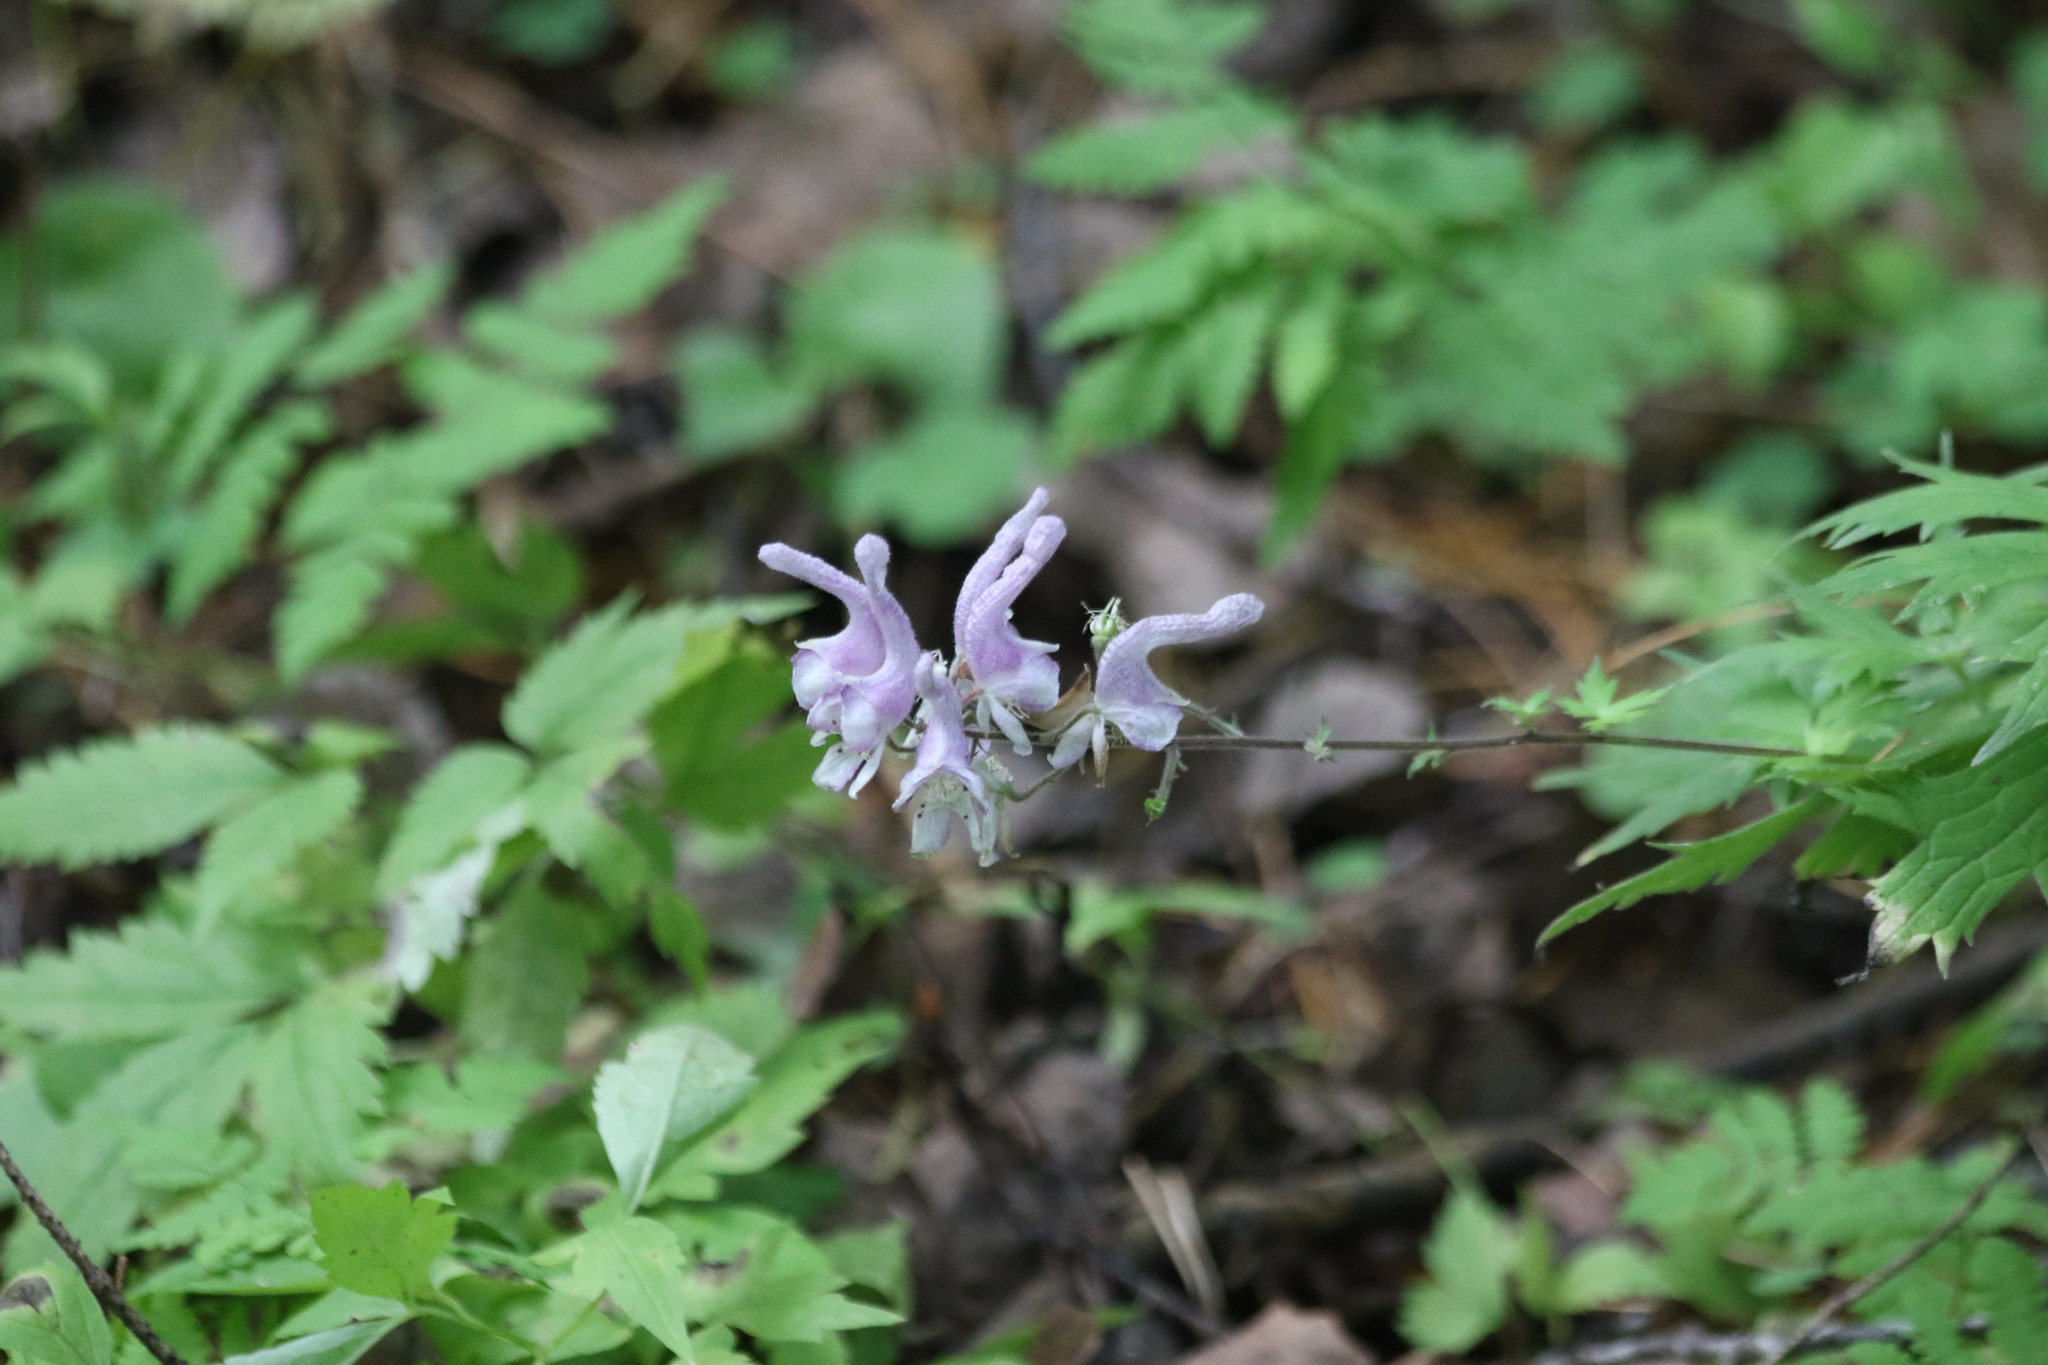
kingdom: Plantae
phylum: Tracheophyta
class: Magnoliopsida
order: Ranunculales
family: Ranunculaceae
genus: Aconitum
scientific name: Aconitum septentrionale
